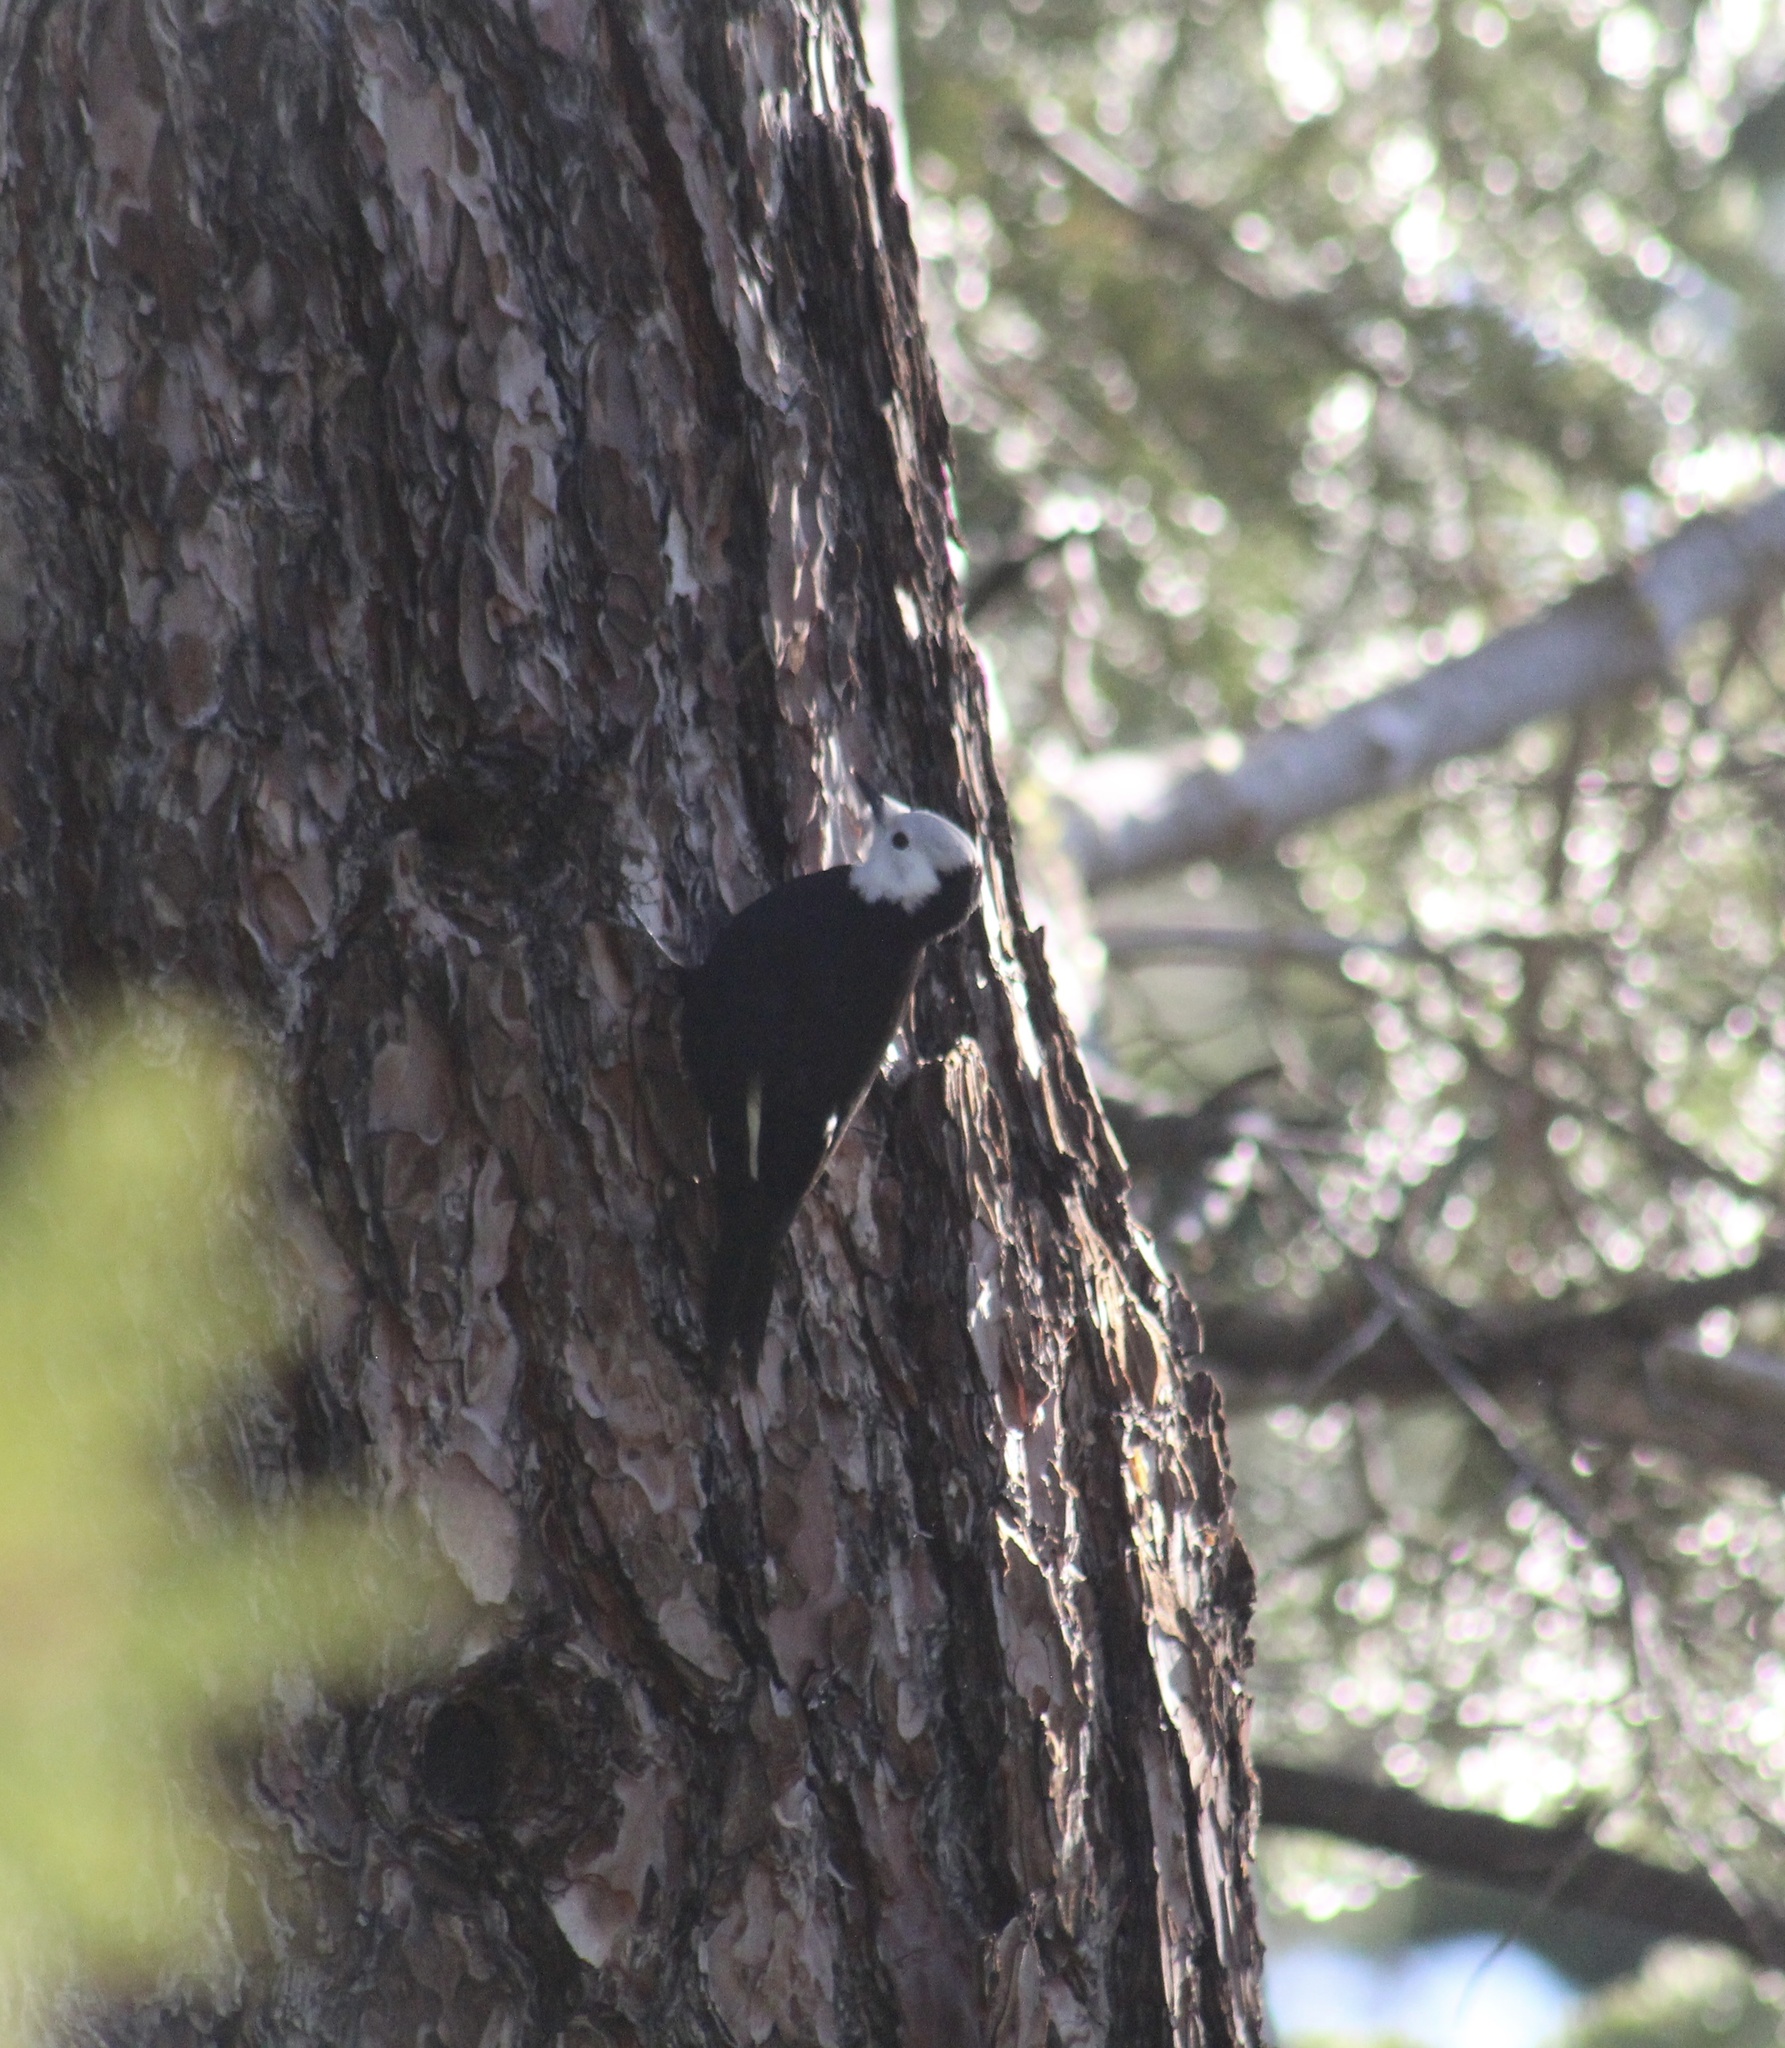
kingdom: Animalia
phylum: Chordata
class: Aves
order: Piciformes
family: Picidae
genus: Leuconotopicus
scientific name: Leuconotopicus albolarvatus
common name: White-headed woodpecker
